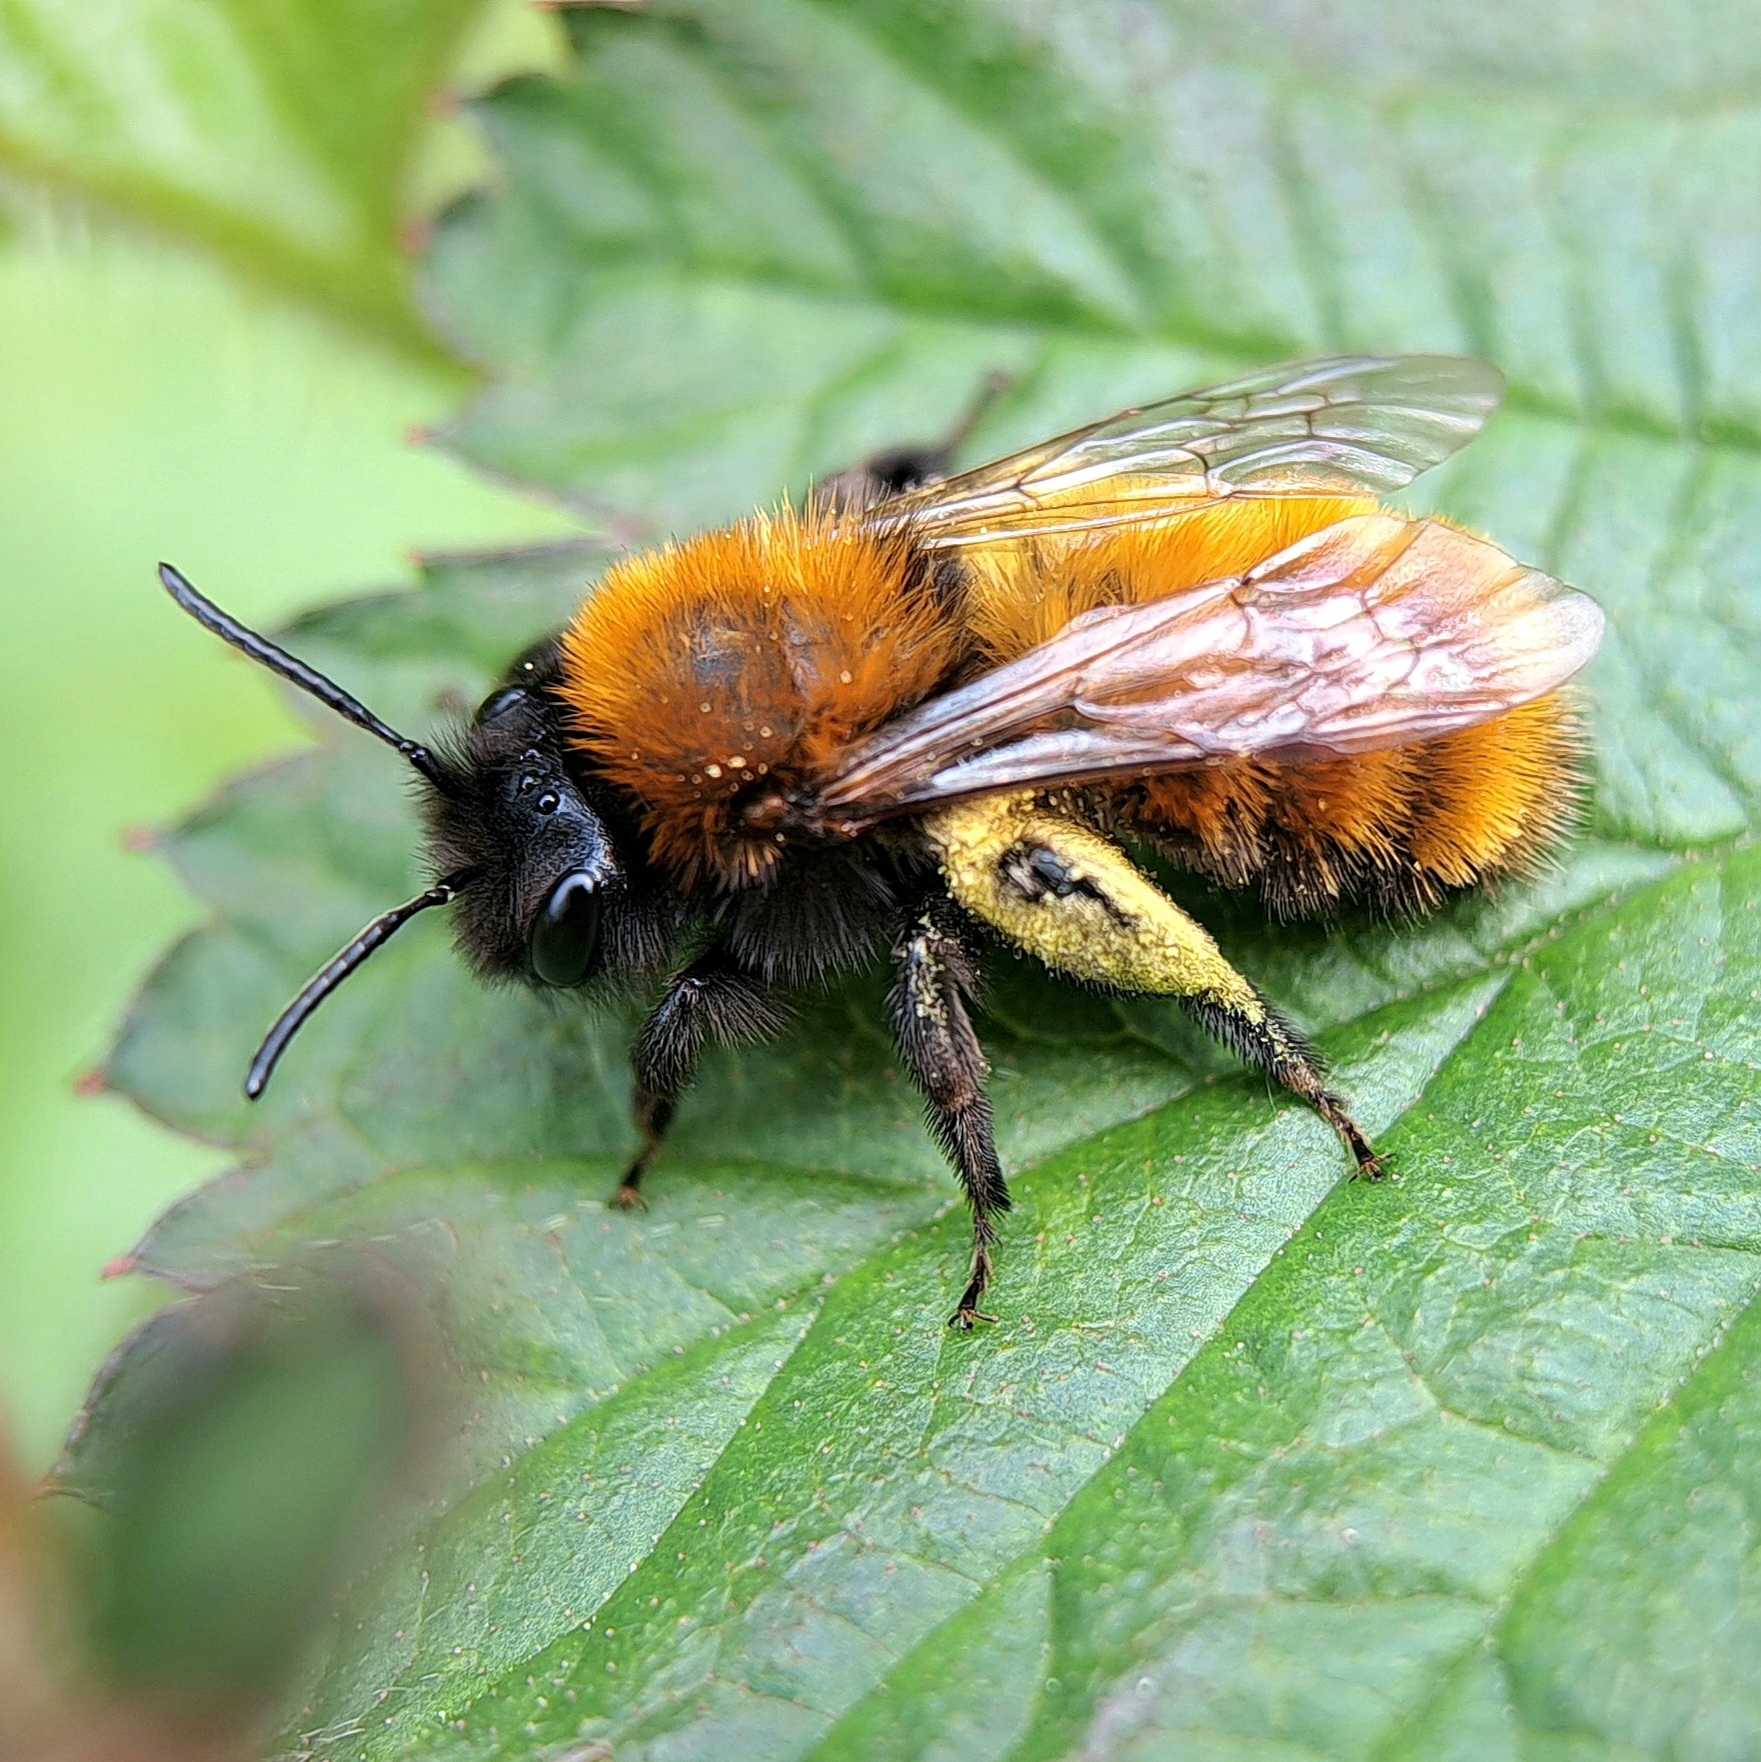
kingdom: Animalia
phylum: Arthropoda
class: Insecta
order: Hymenoptera
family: Andrenidae
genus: Andrena
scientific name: Andrena fulva
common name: Tawny mining bee
